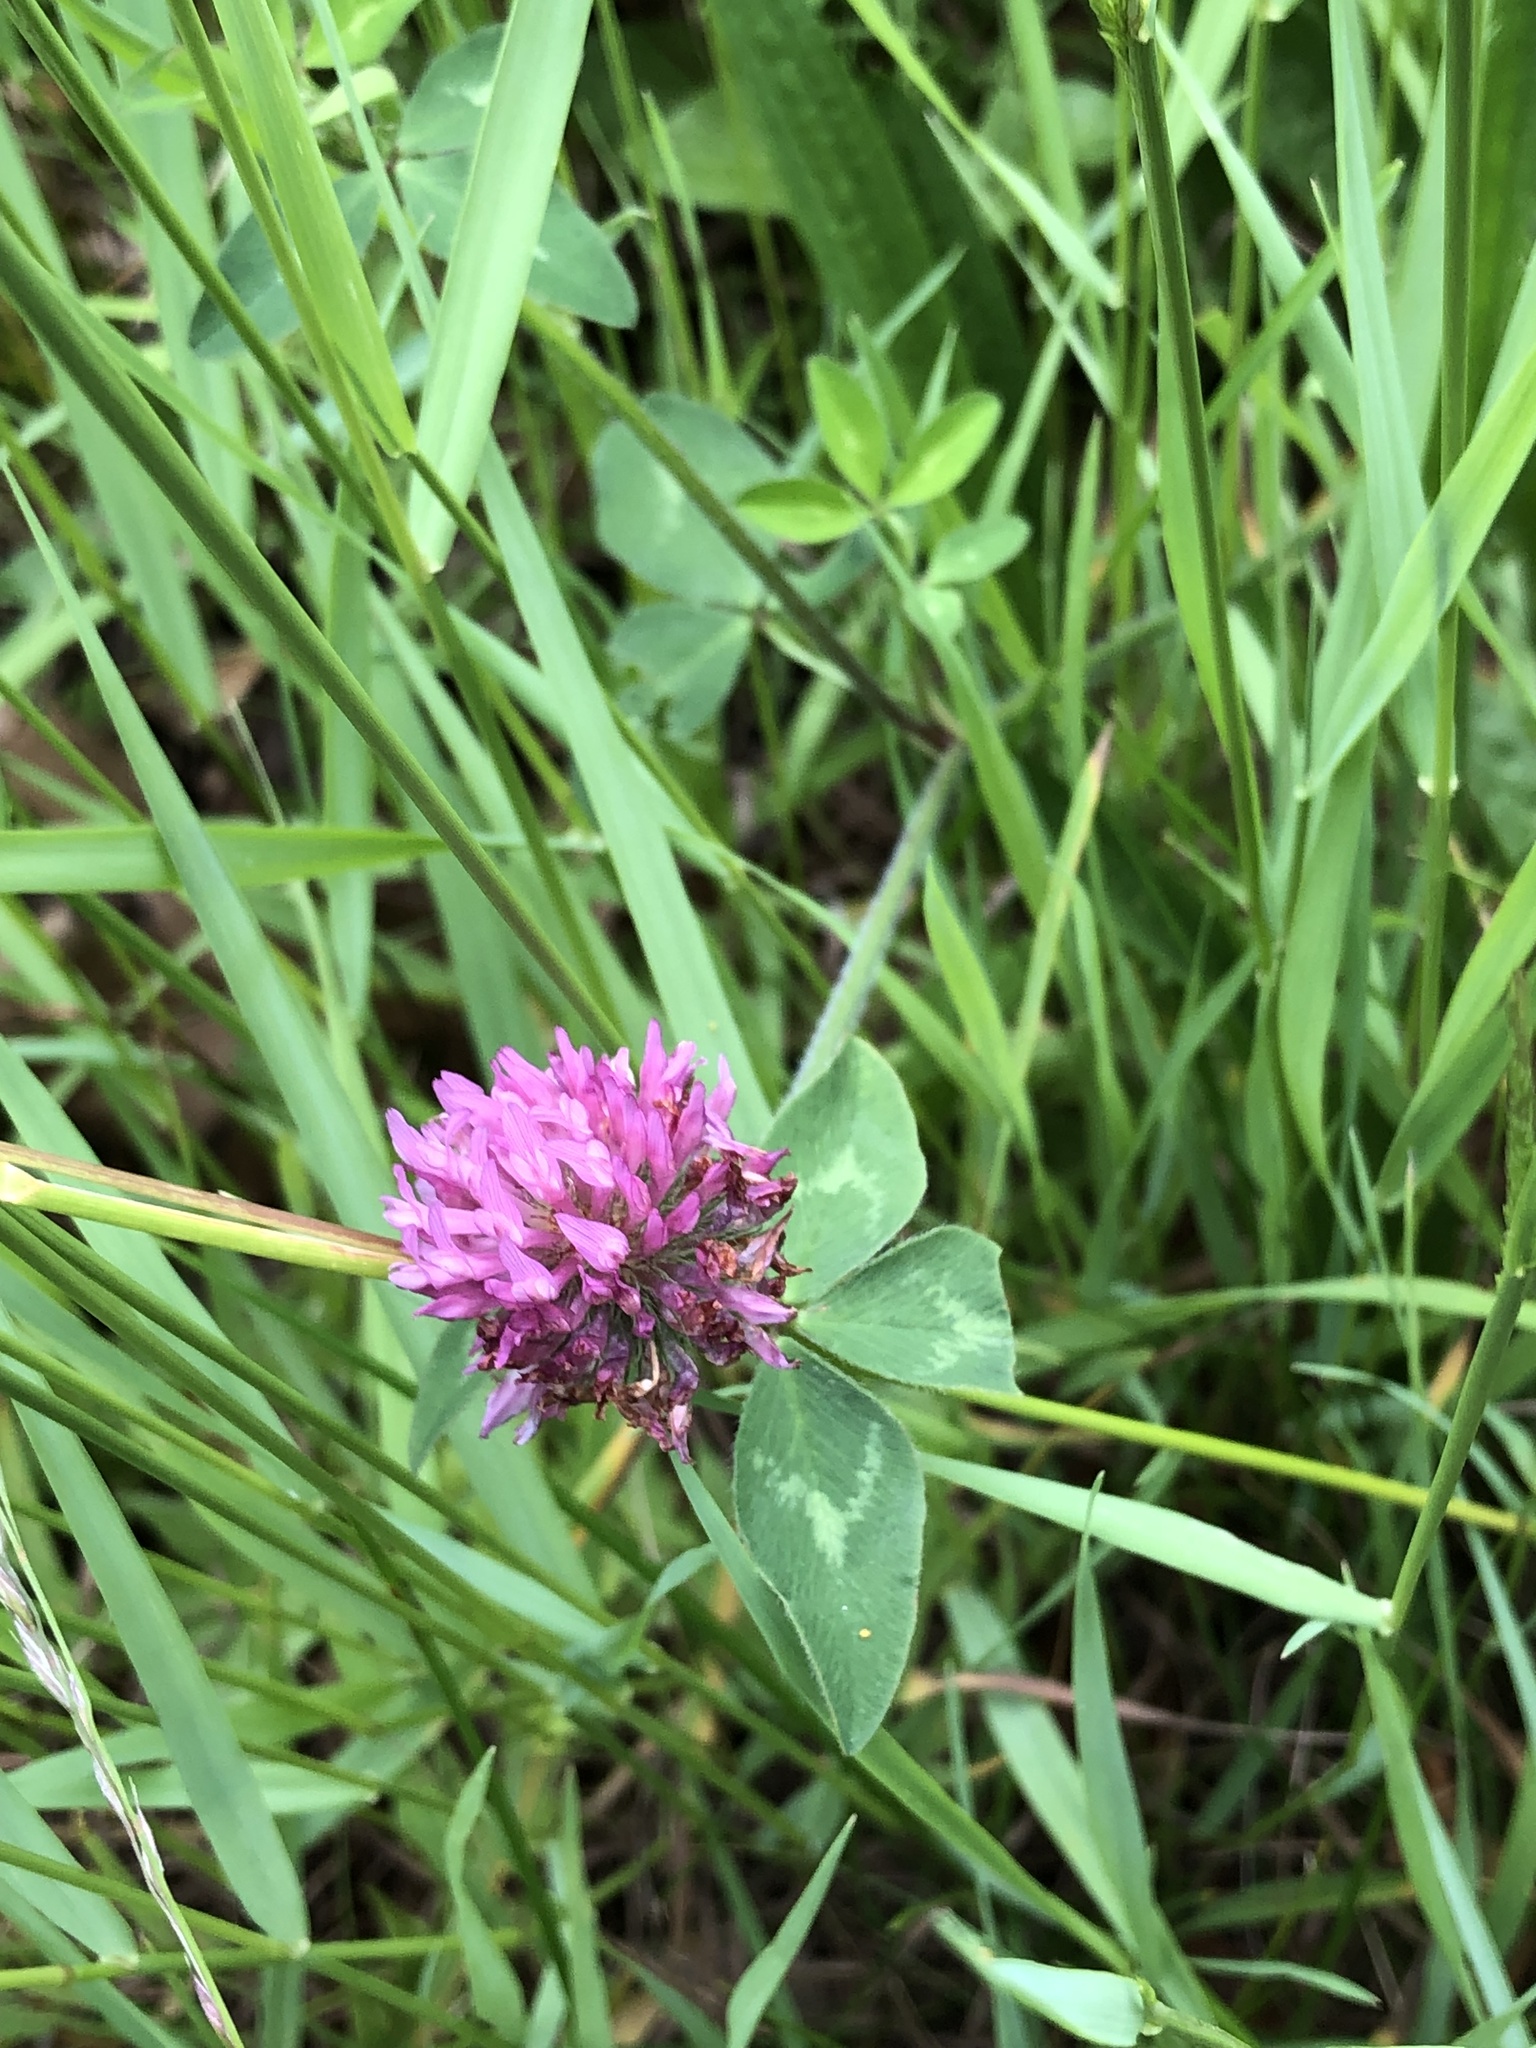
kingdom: Plantae
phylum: Tracheophyta
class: Magnoliopsida
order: Fabales
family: Fabaceae
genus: Trifolium
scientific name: Trifolium pratense
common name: Red clover
